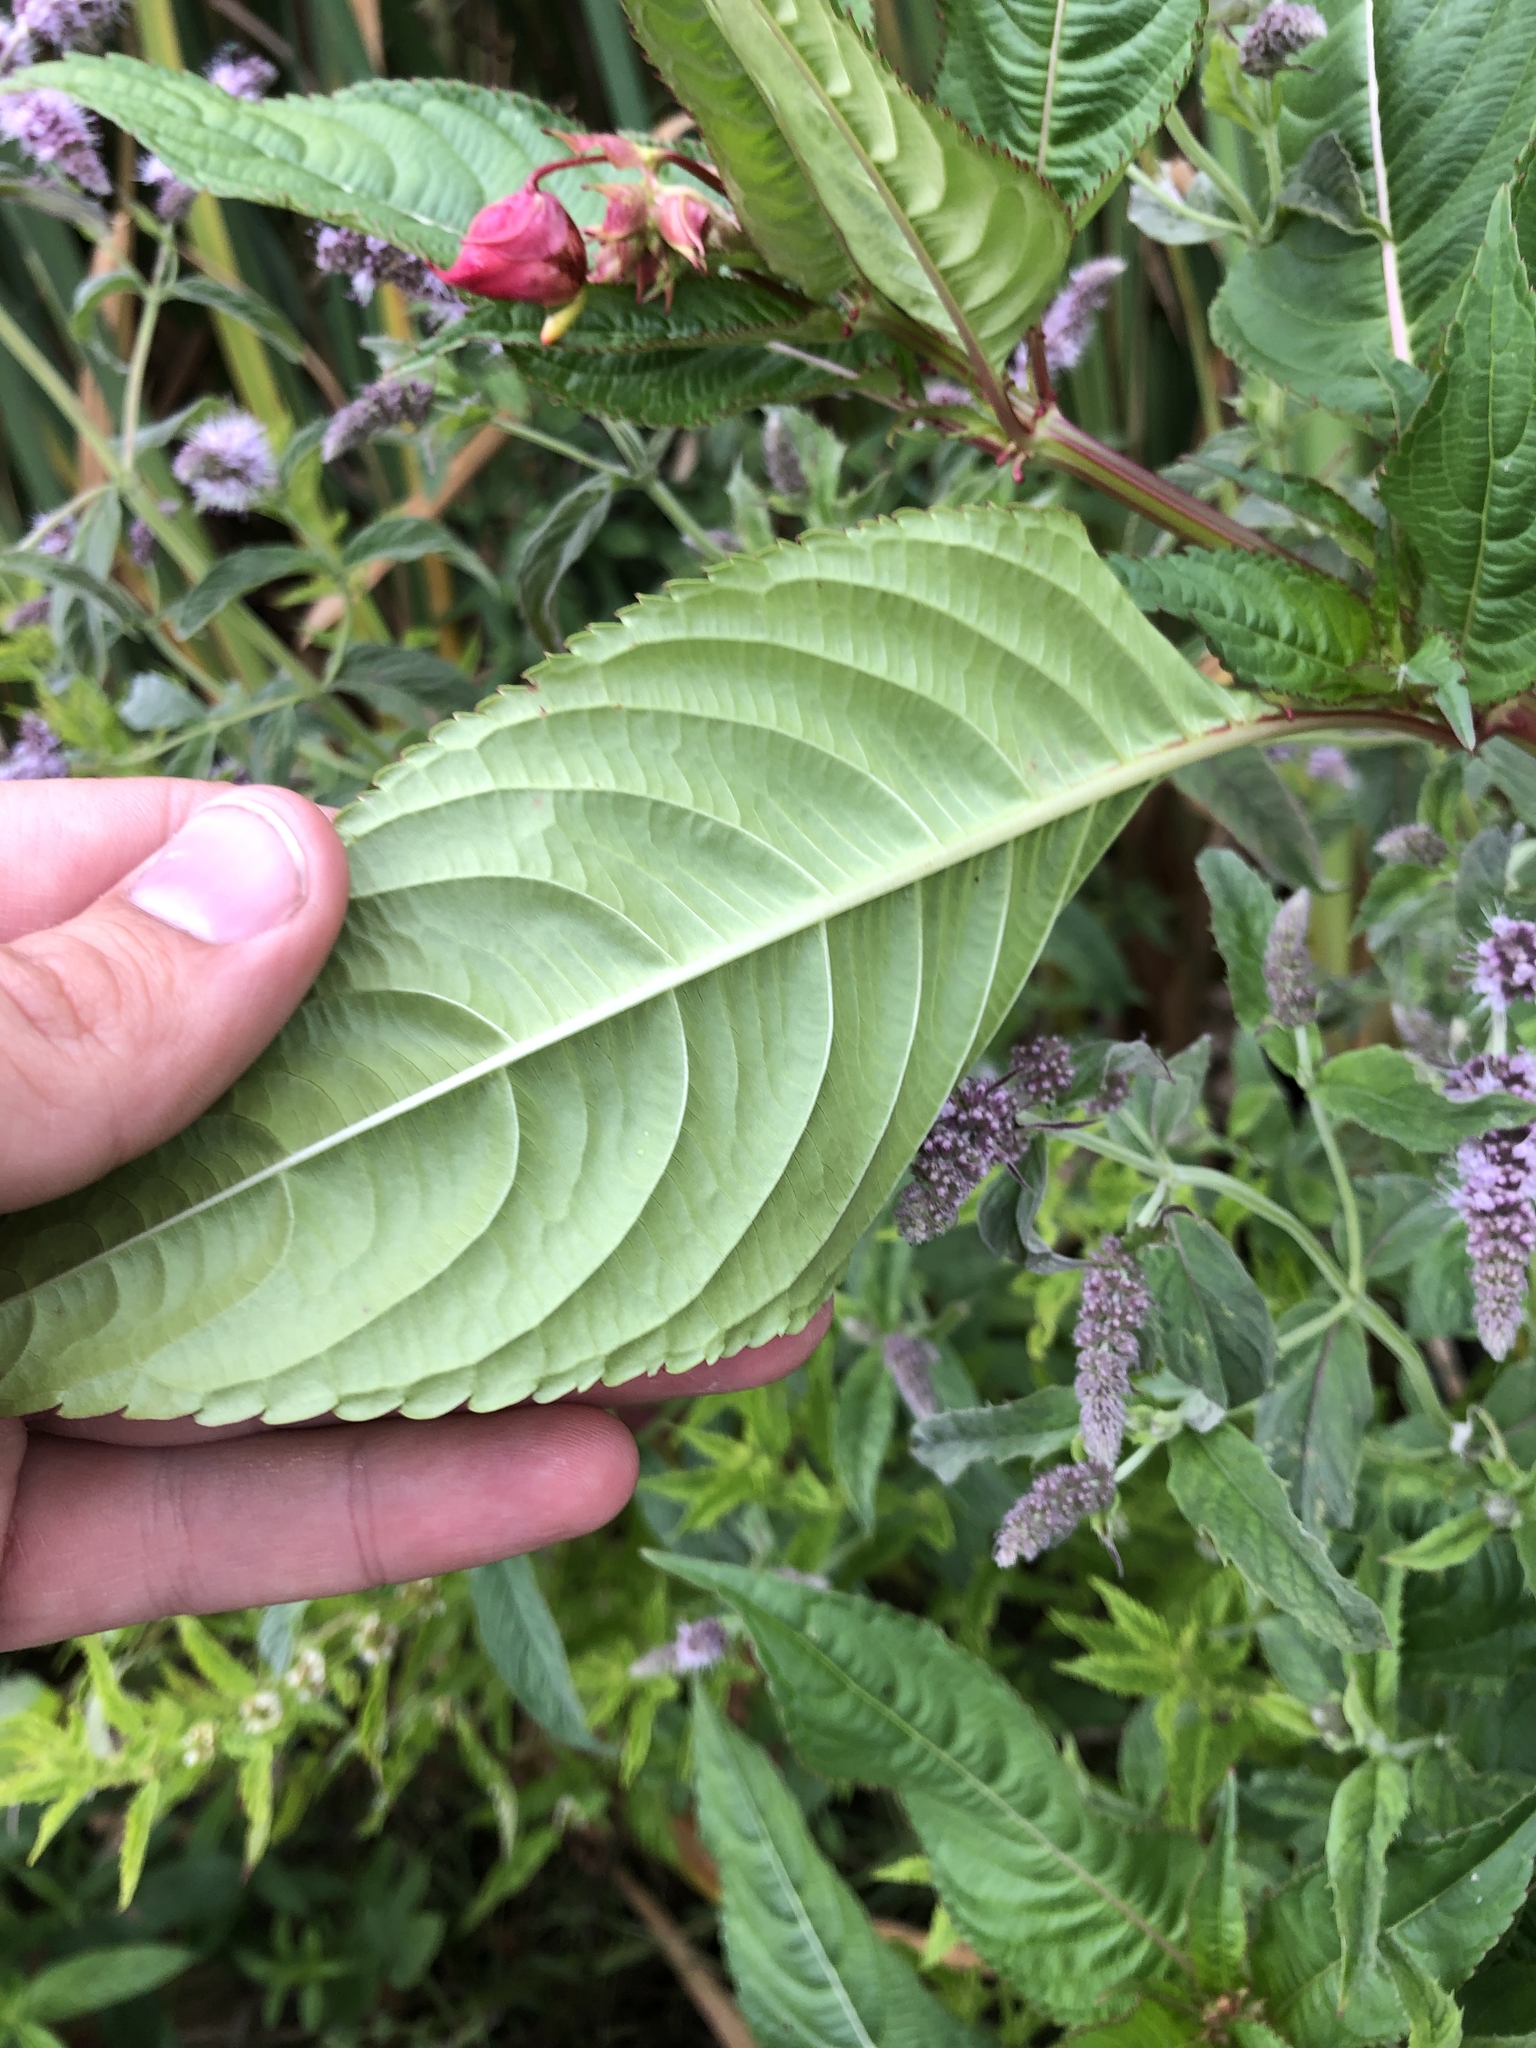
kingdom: Plantae
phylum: Tracheophyta
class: Magnoliopsida
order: Ericales
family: Balsaminaceae
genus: Impatiens
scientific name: Impatiens glandulifera
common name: Himalayan balsam
